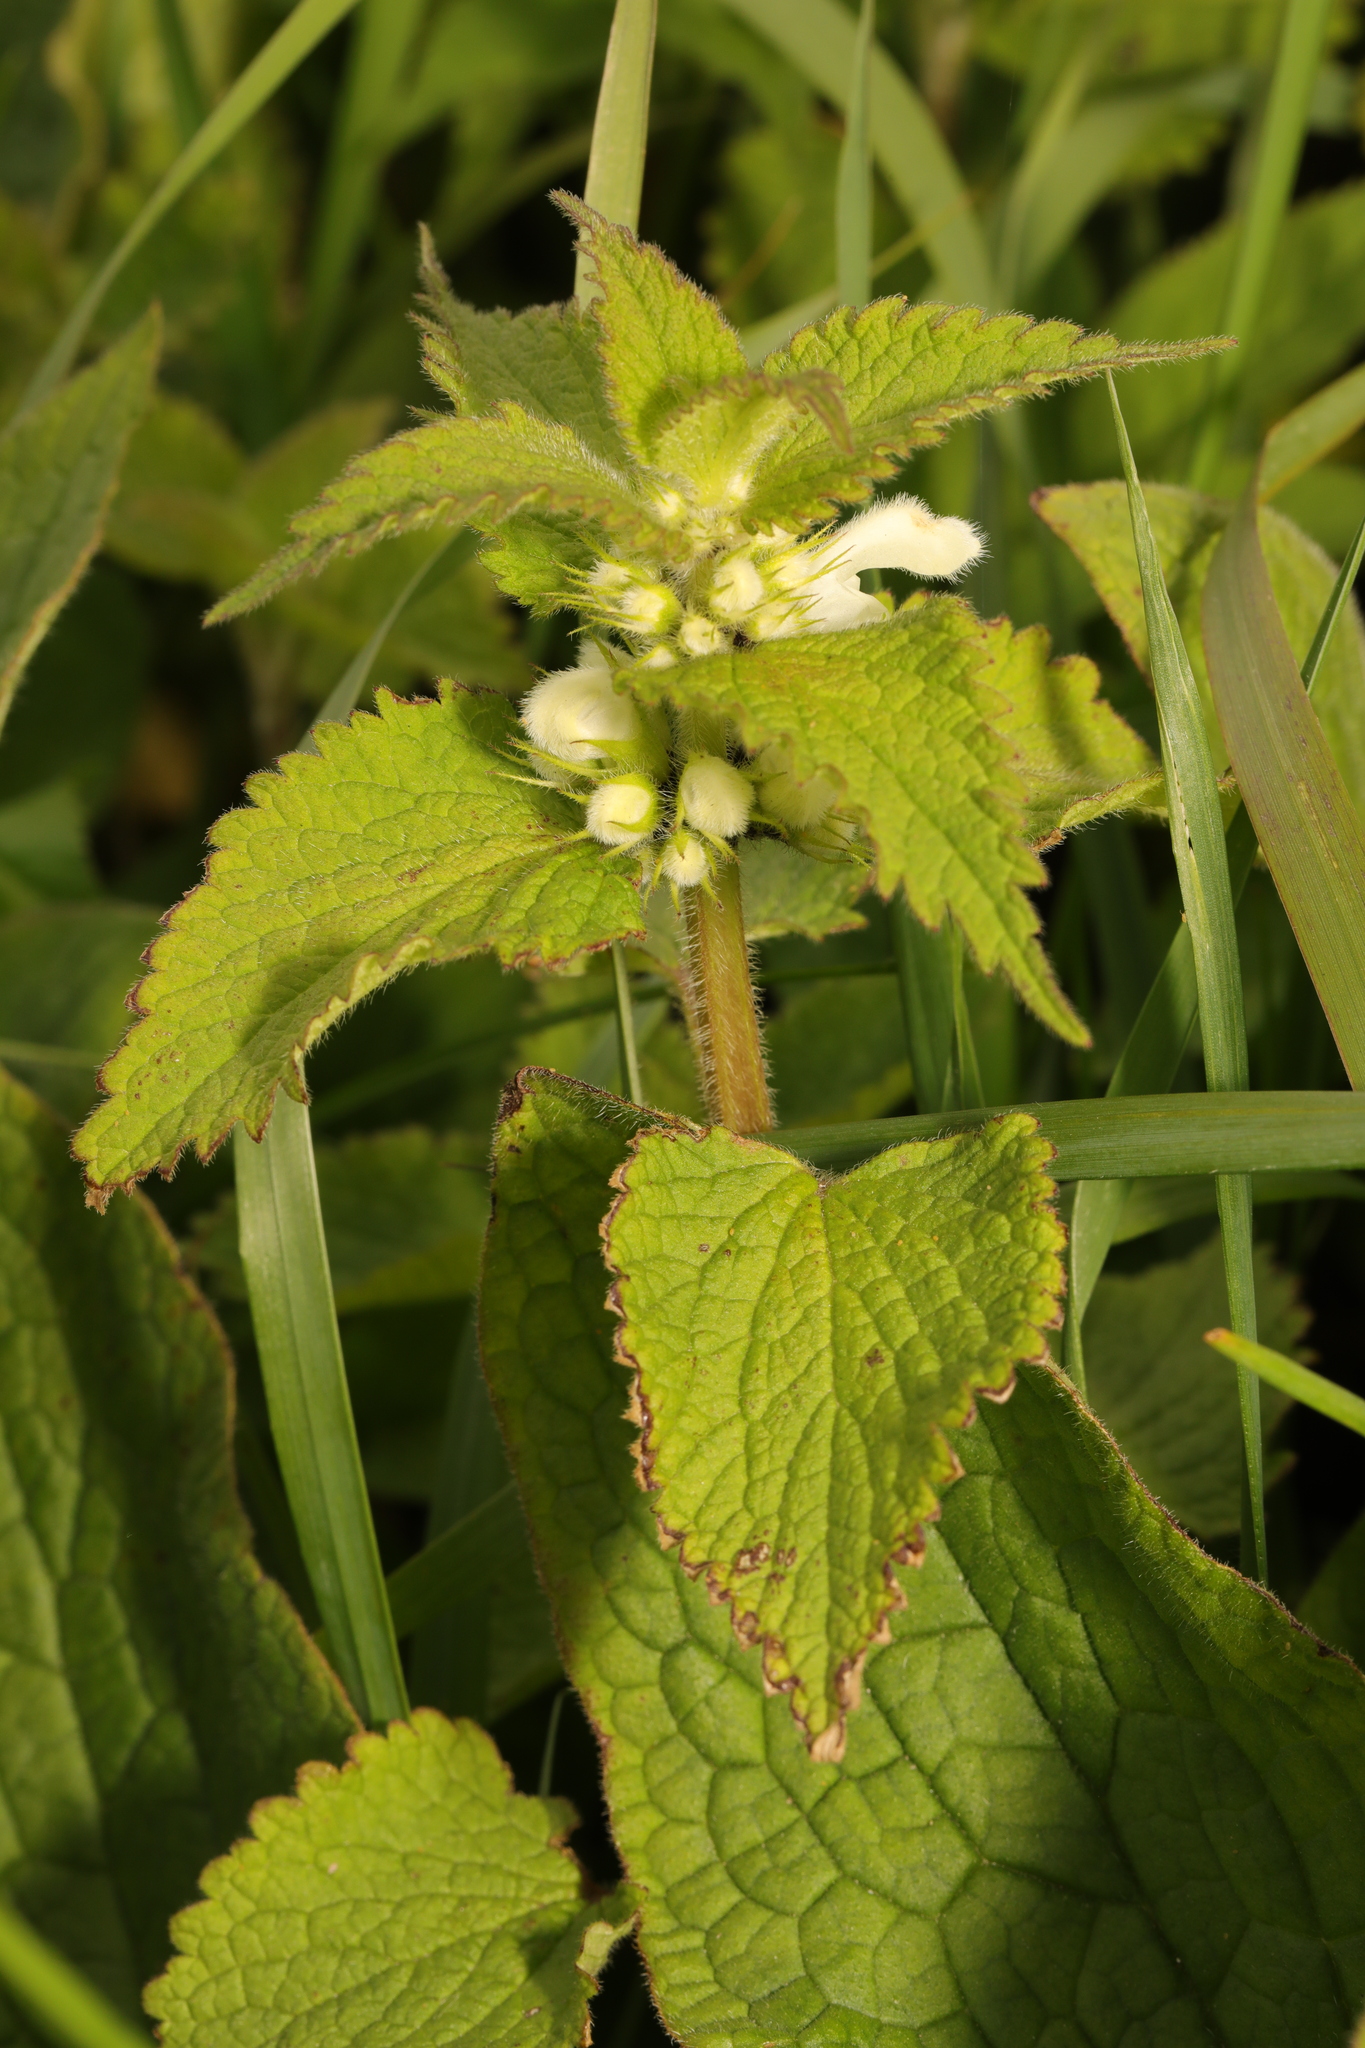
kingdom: Plantae
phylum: Tracheophyta
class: Magnoliopsida
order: Lamiales
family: Lamiaceae
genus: Lamium
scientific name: Lamium album
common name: White dead-nettle
